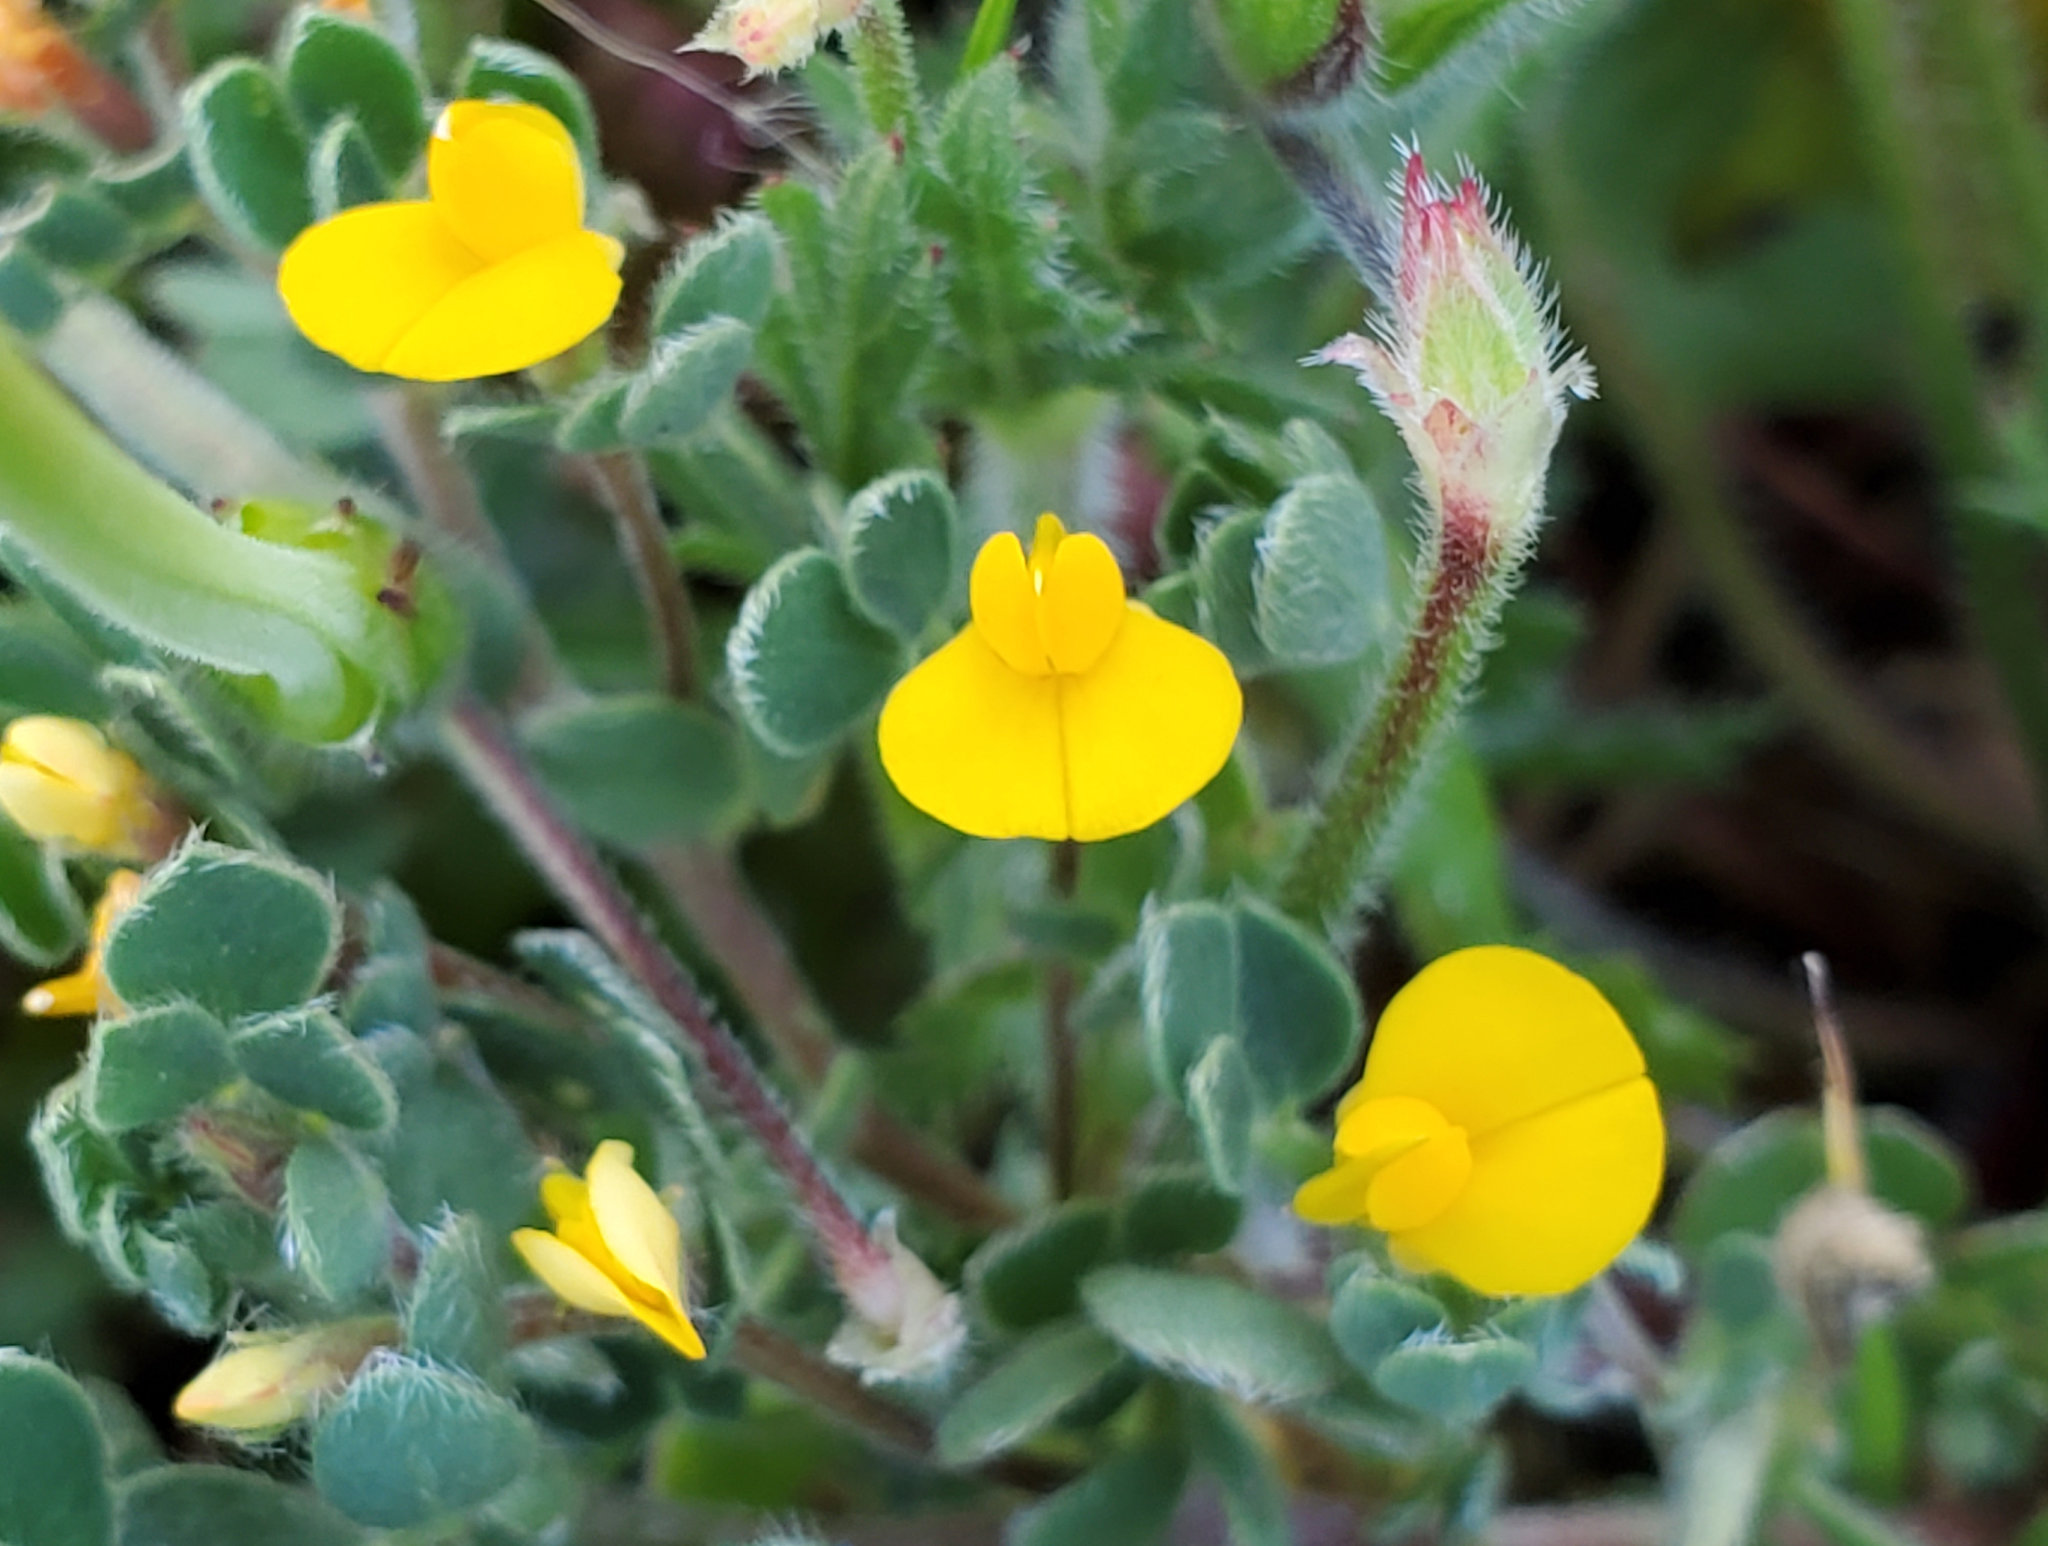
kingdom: Plantae
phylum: Tracheophyta
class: Magnoliopsida
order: Fabales
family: Fabaceae
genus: Acmispon
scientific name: Acmispon wrangelianus
